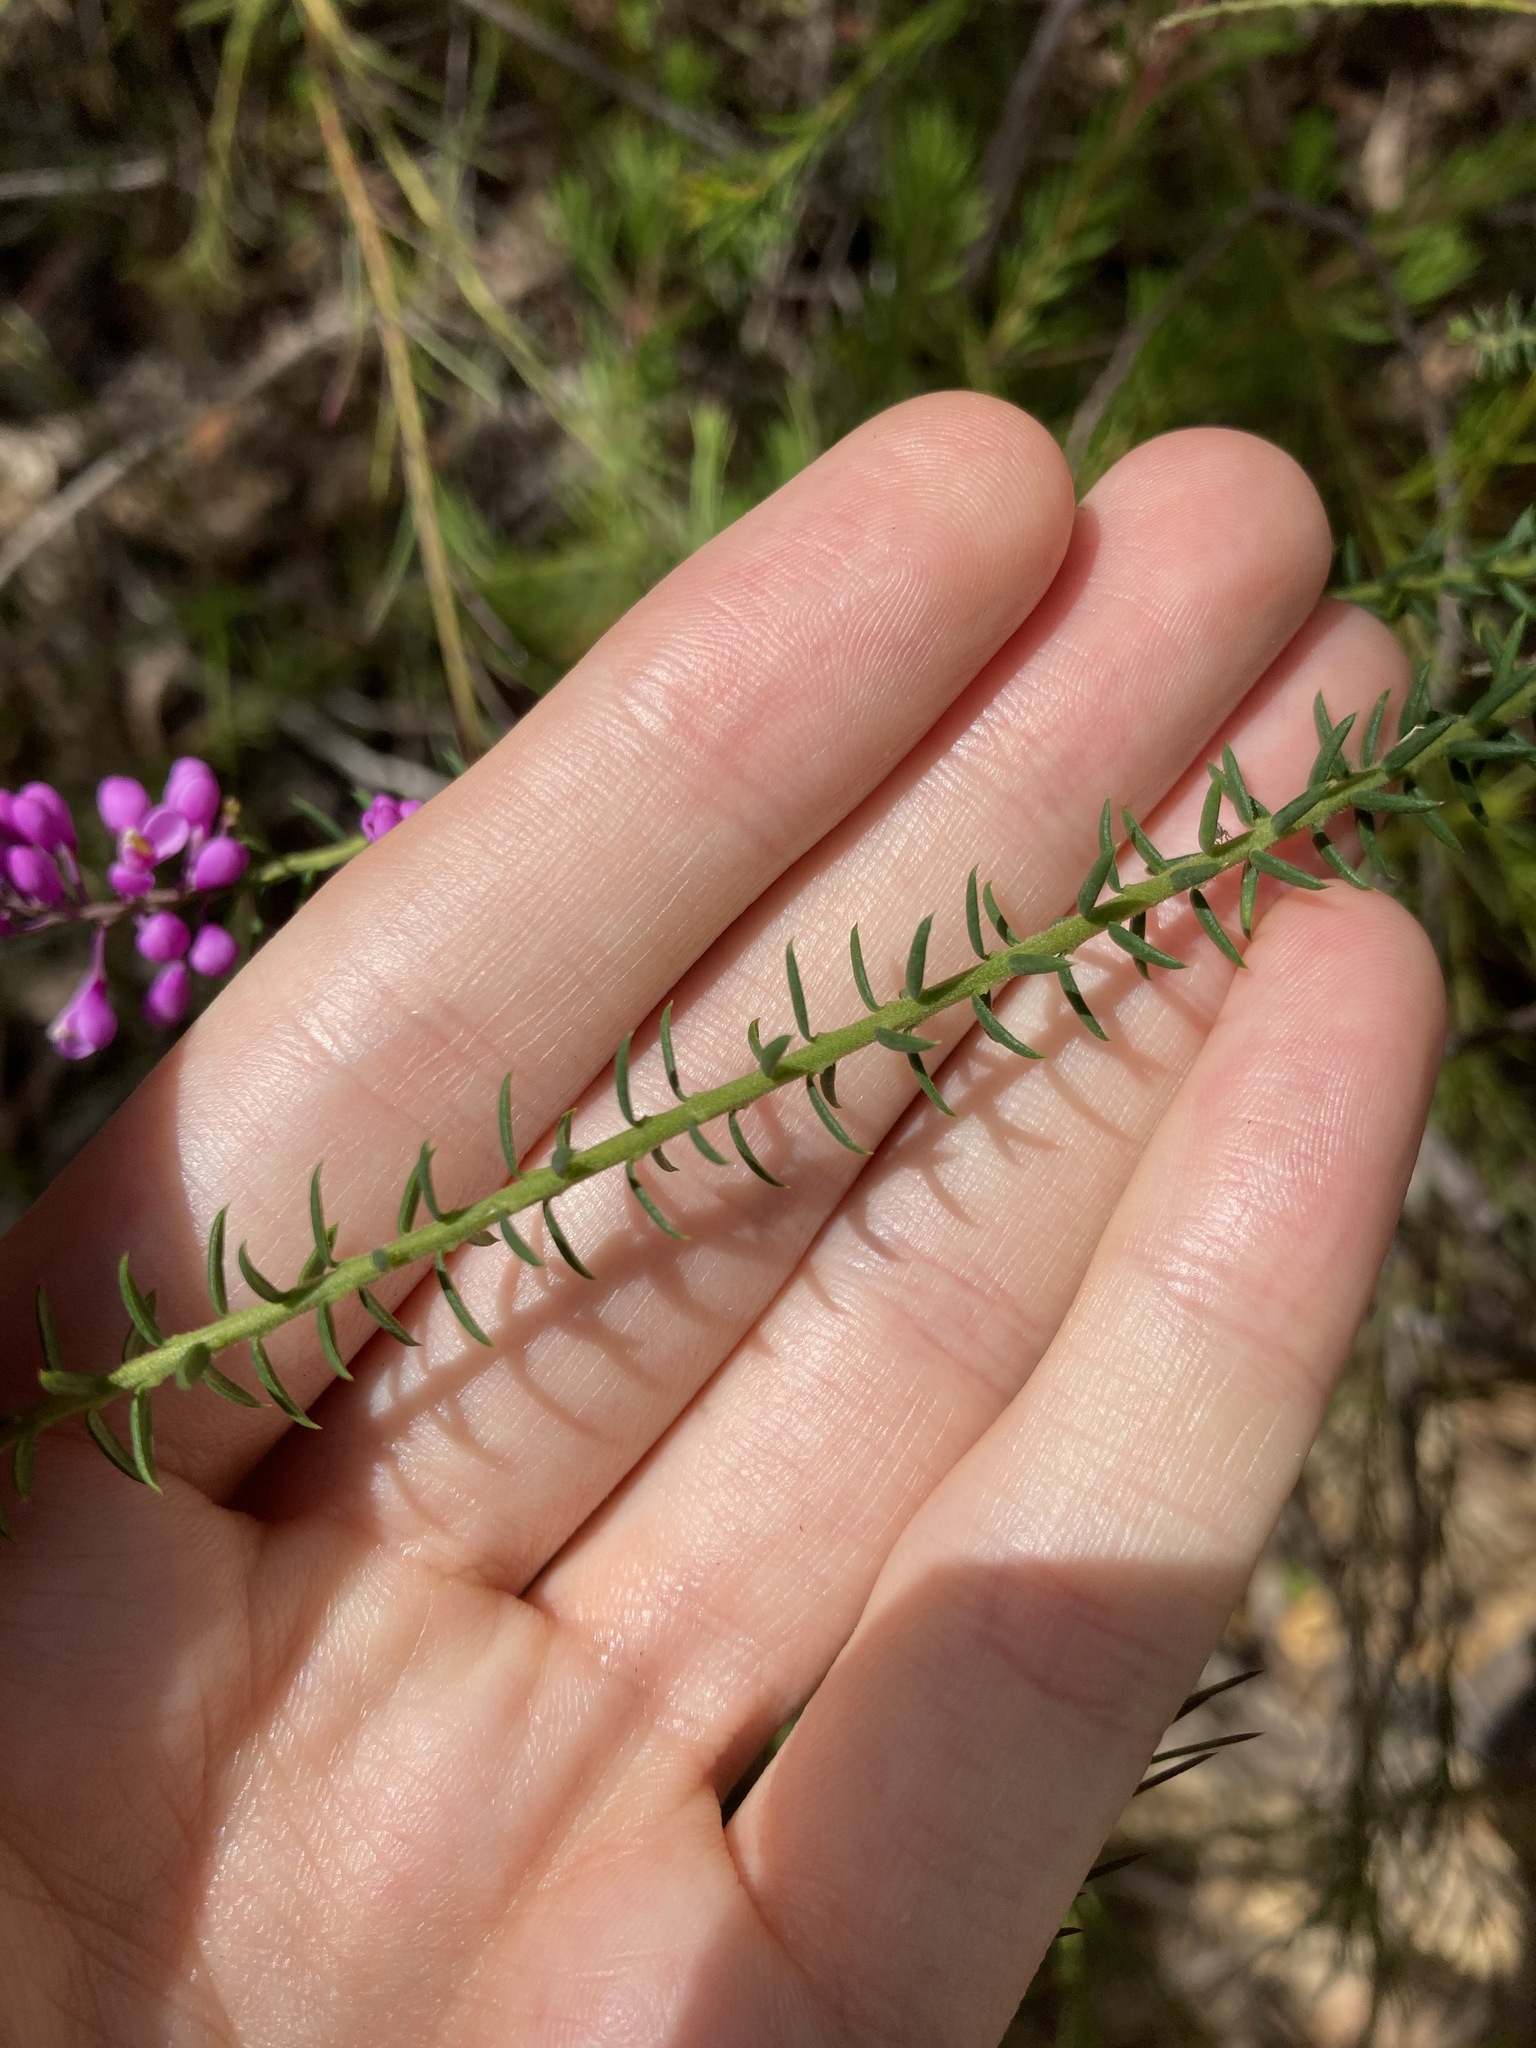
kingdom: Plantae
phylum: Tracheophyta
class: Magnoliopsida
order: Fabales
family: Polygalaceae
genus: Comesperma
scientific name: Comesperma ericinum
